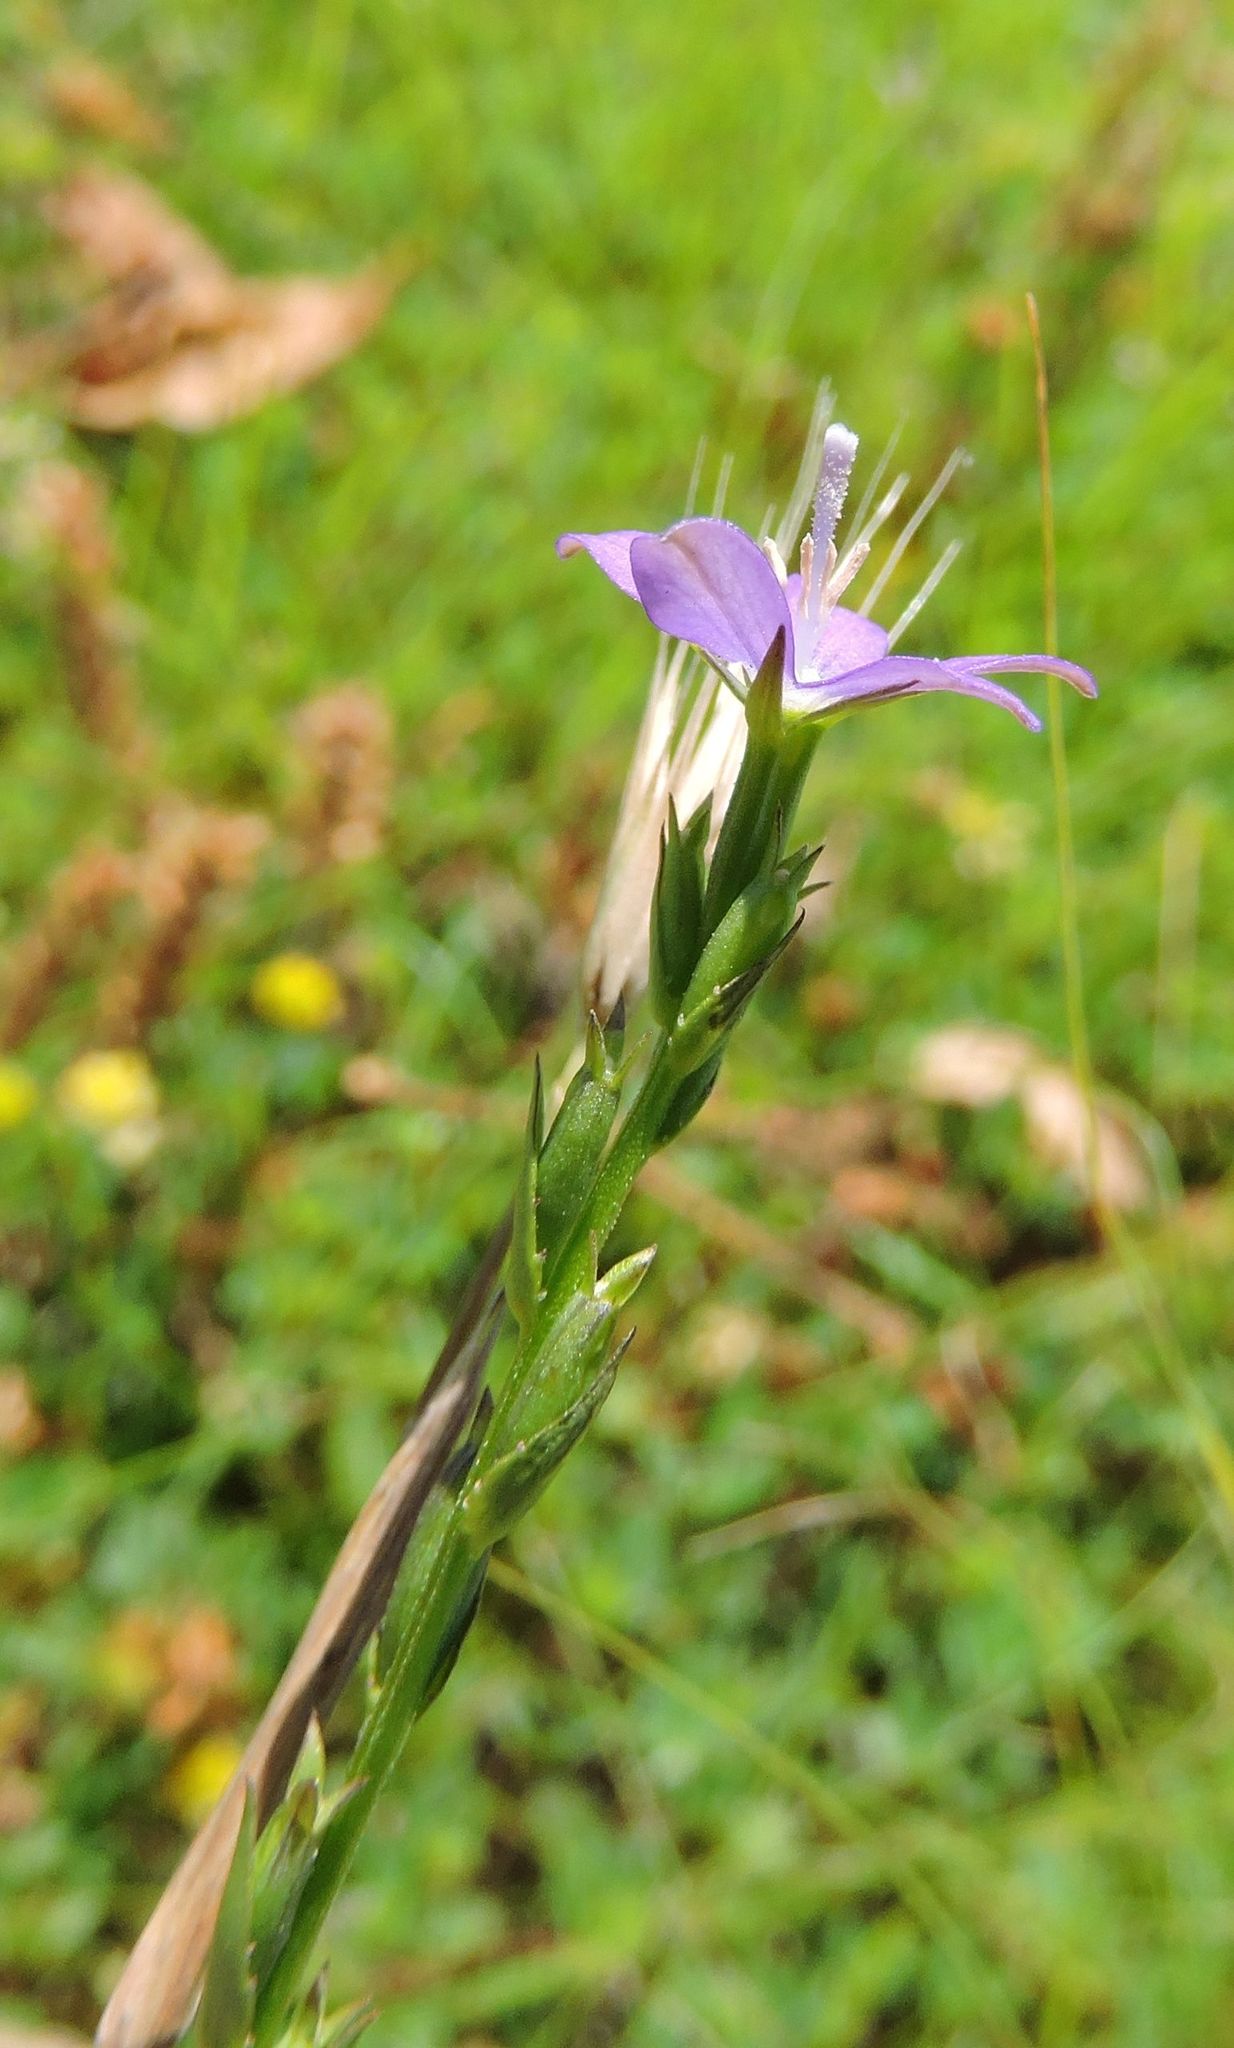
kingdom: Plantae
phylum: Tracheophyta
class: Magnoliopsida
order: Asterales
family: Campanulaceae
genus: Triodanis
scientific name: Triodanis biflora
